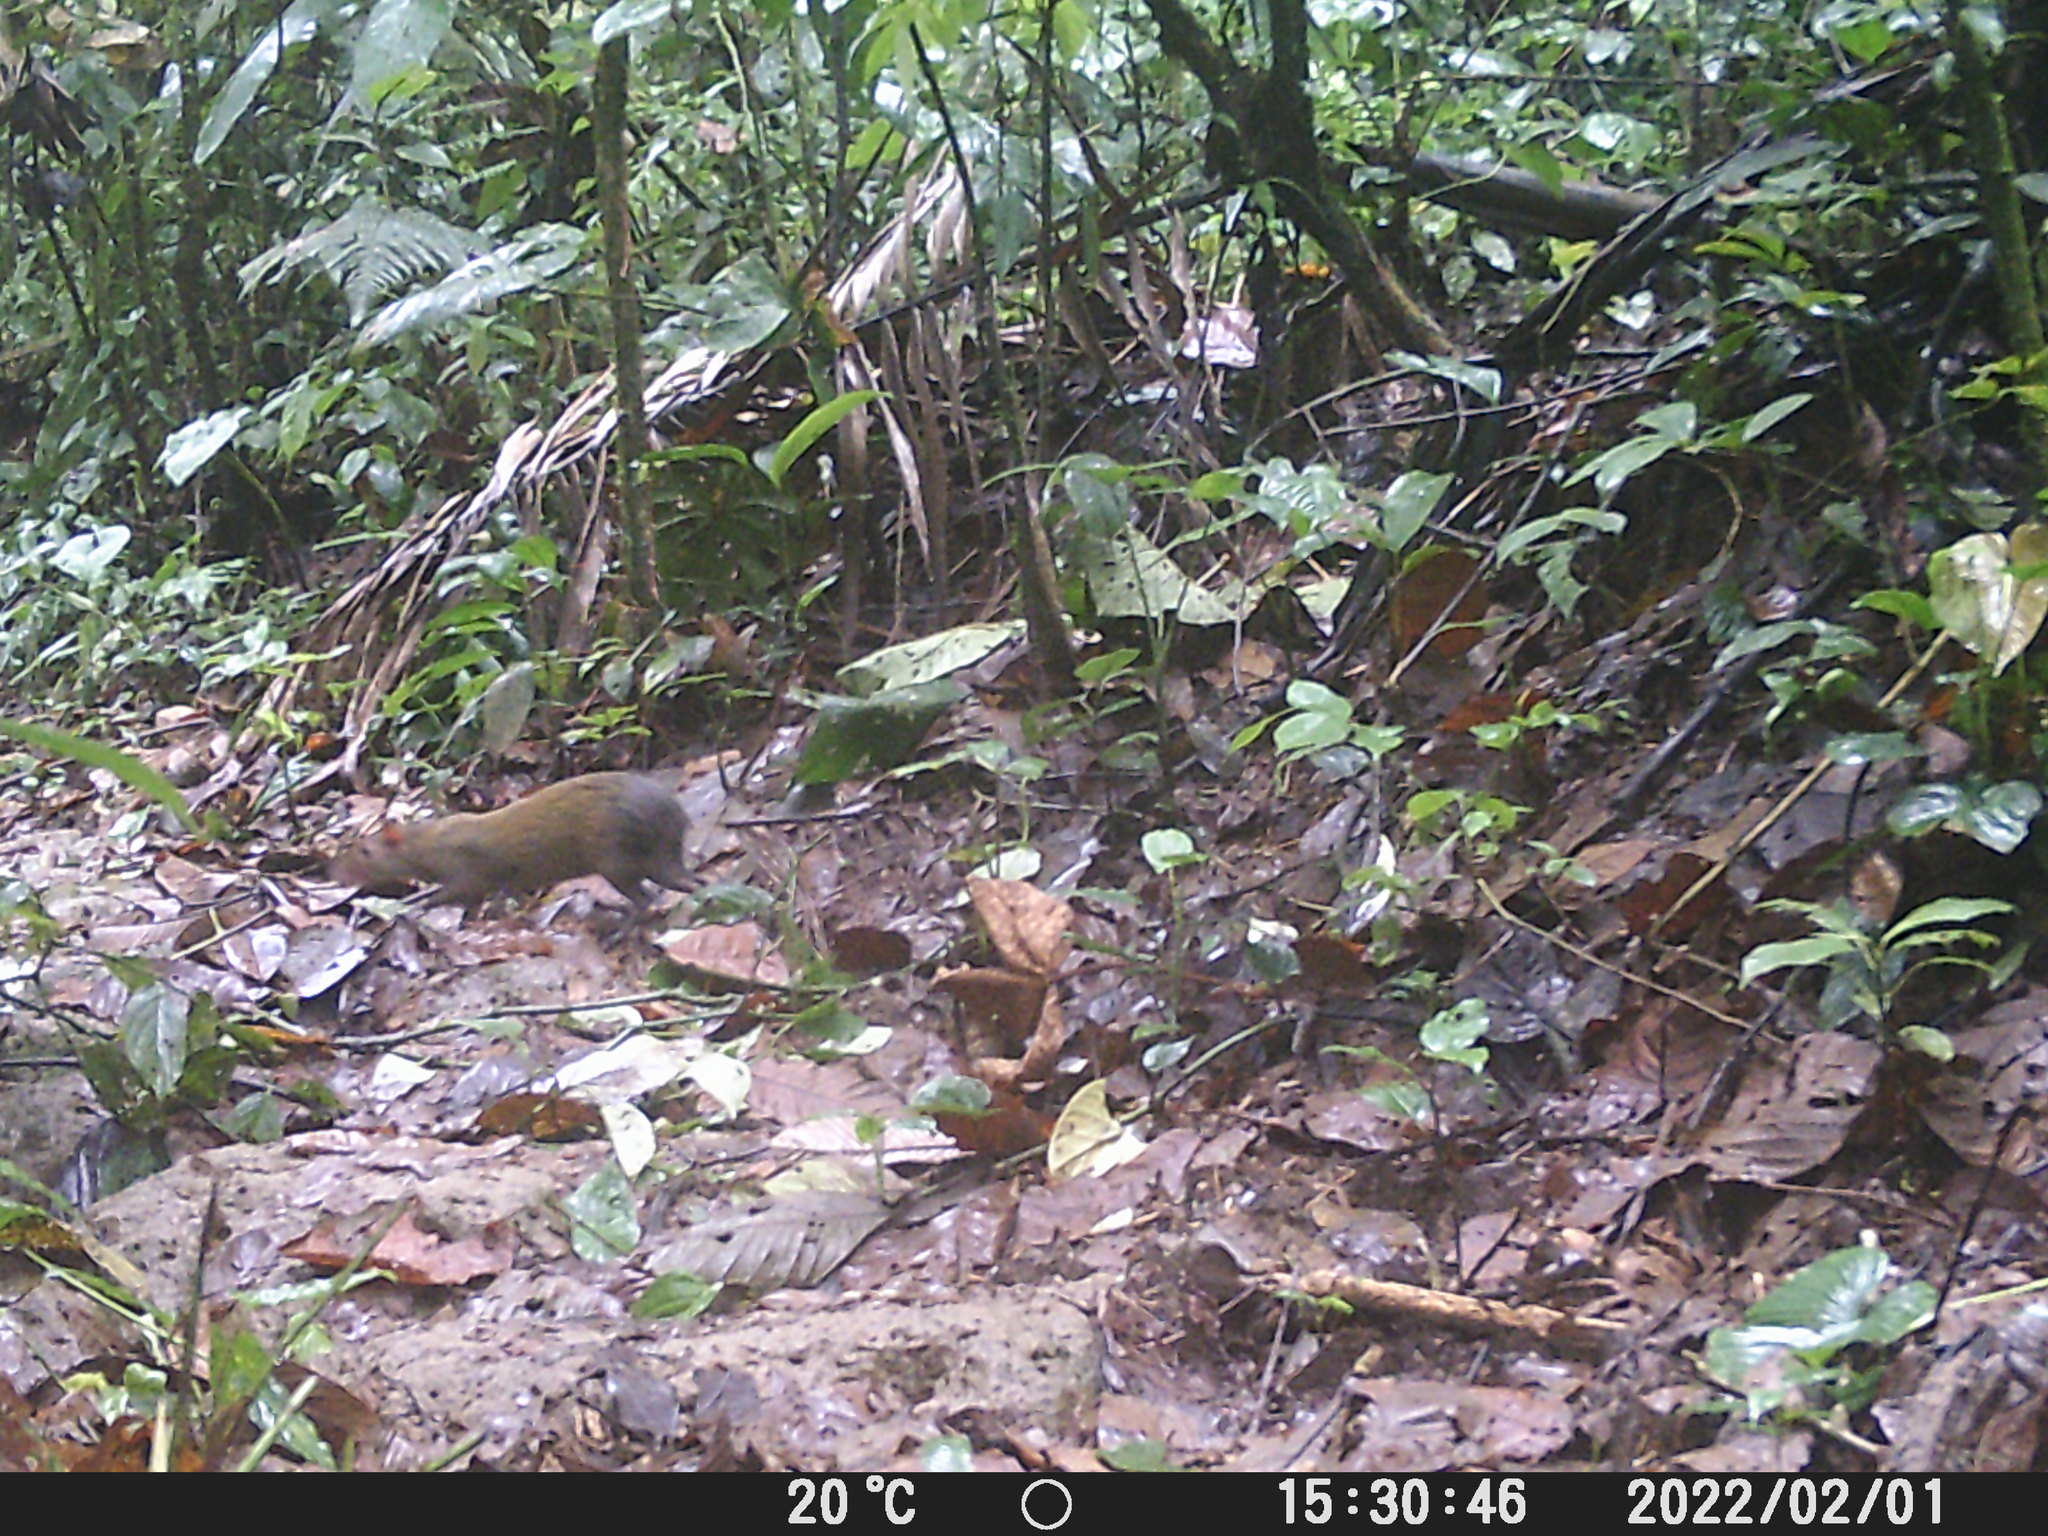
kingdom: Animalia
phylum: Chordata
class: Mammalia
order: Rodentia
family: Dasyproctidae
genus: Dasyprocta
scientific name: Dasyprocta punctata
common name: Central american agouti
